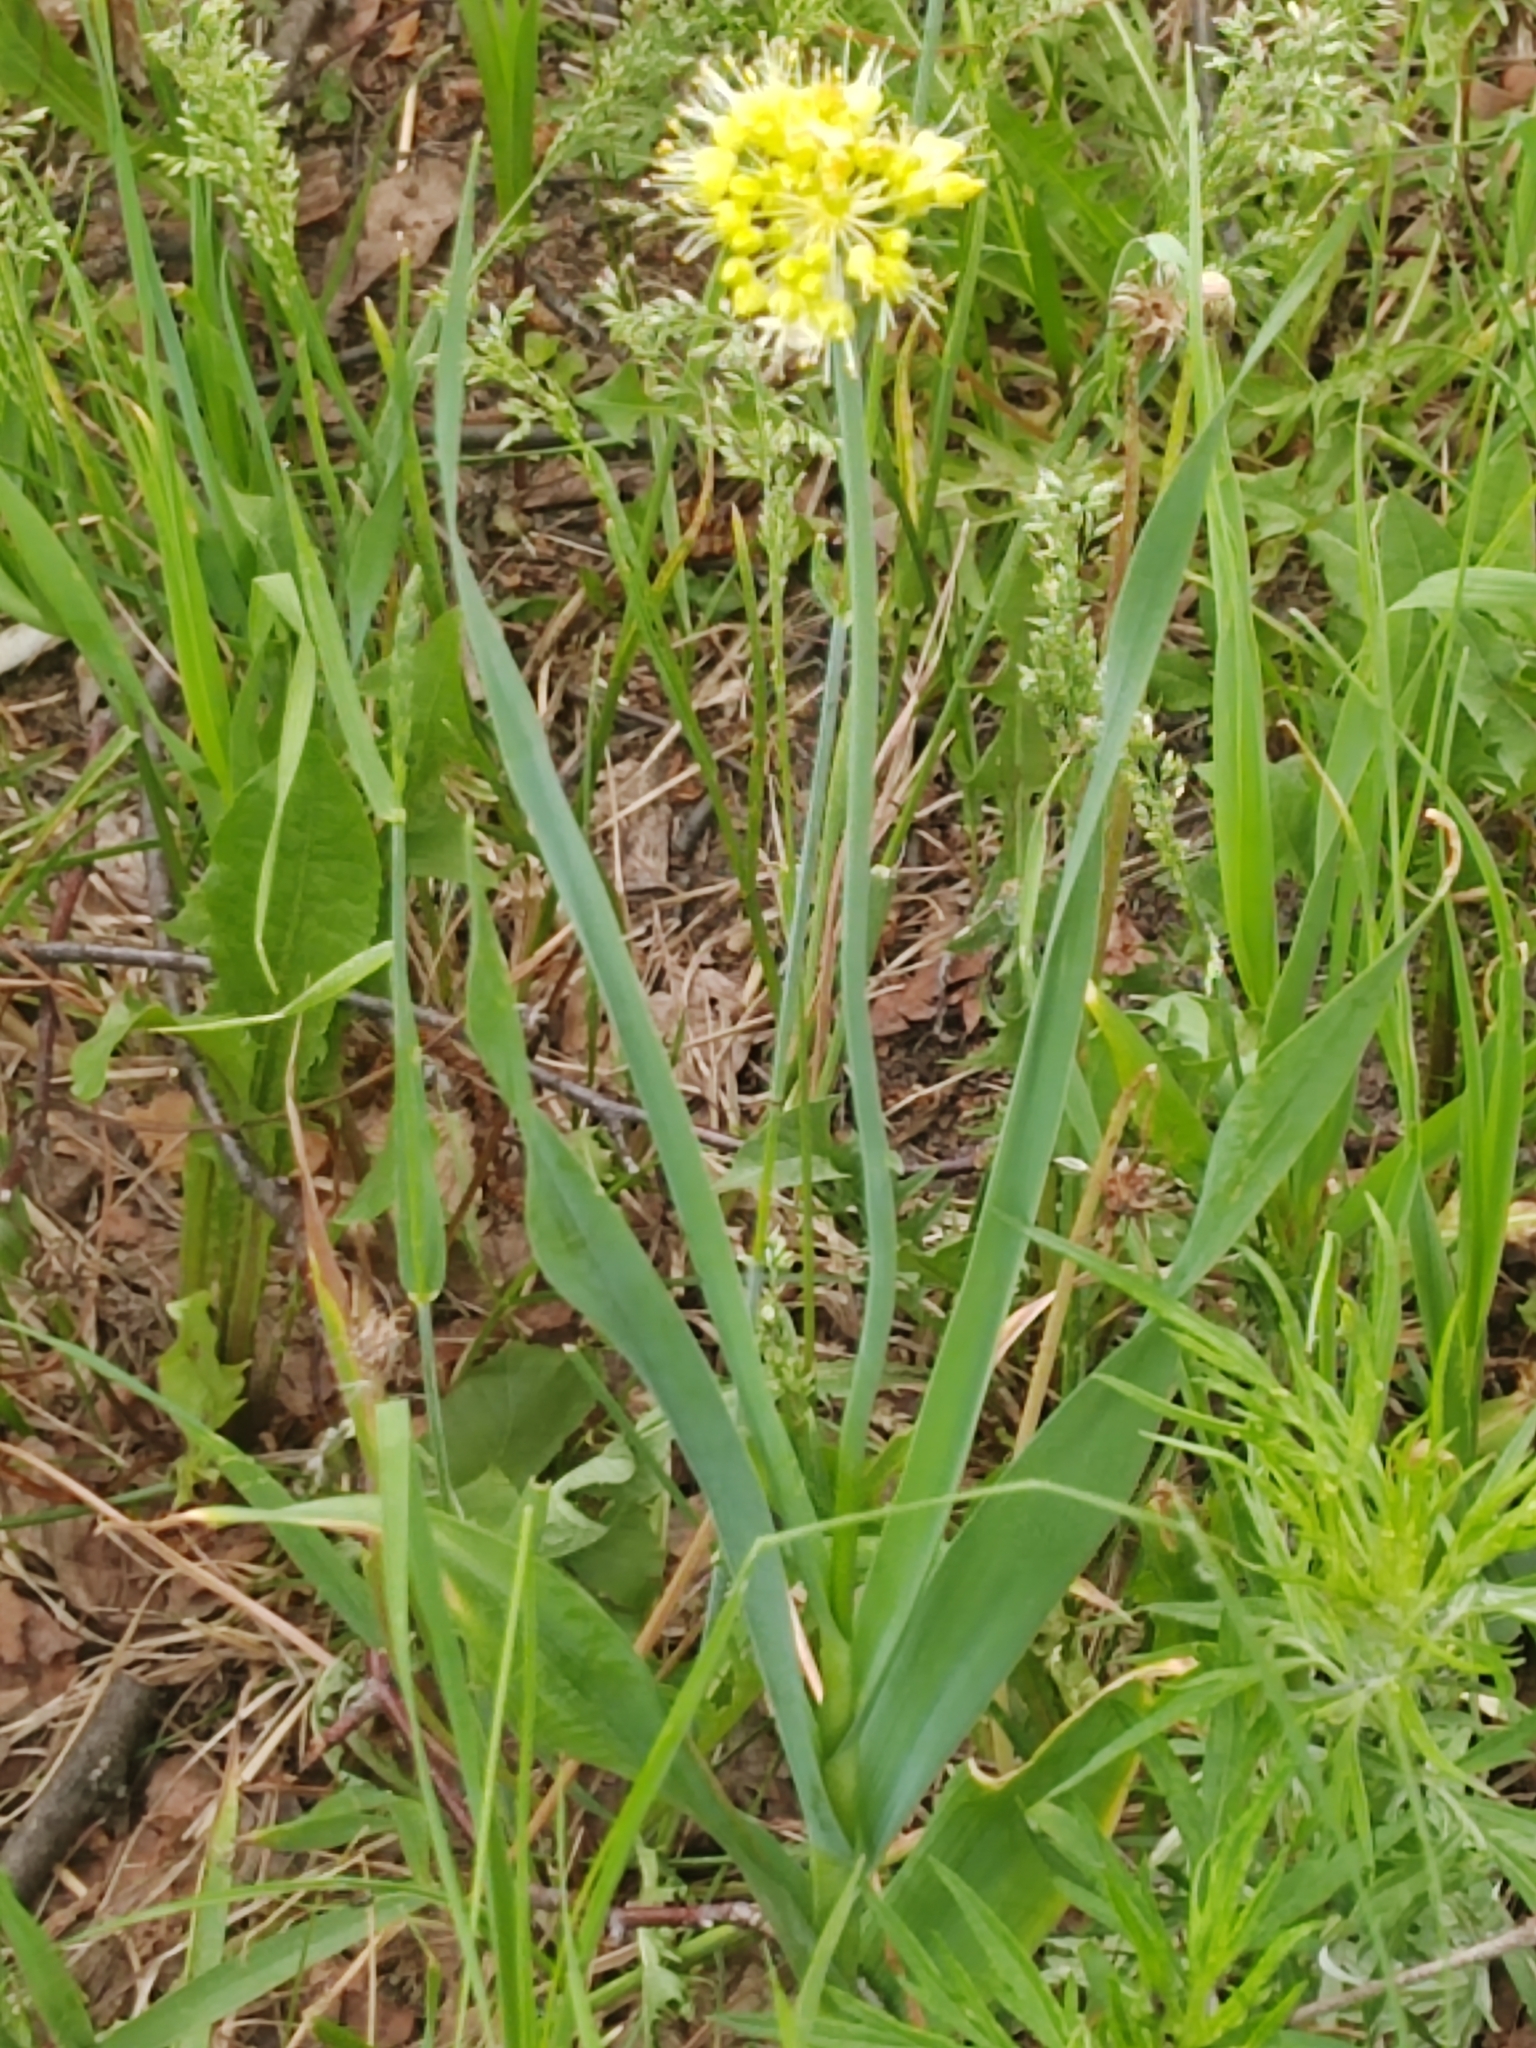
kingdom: Plantae
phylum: Tracheophyta
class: Liliopsida
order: Asparagales
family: Amaryllidaceae
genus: Allium
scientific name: Allium obliquum
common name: Oblique onion
